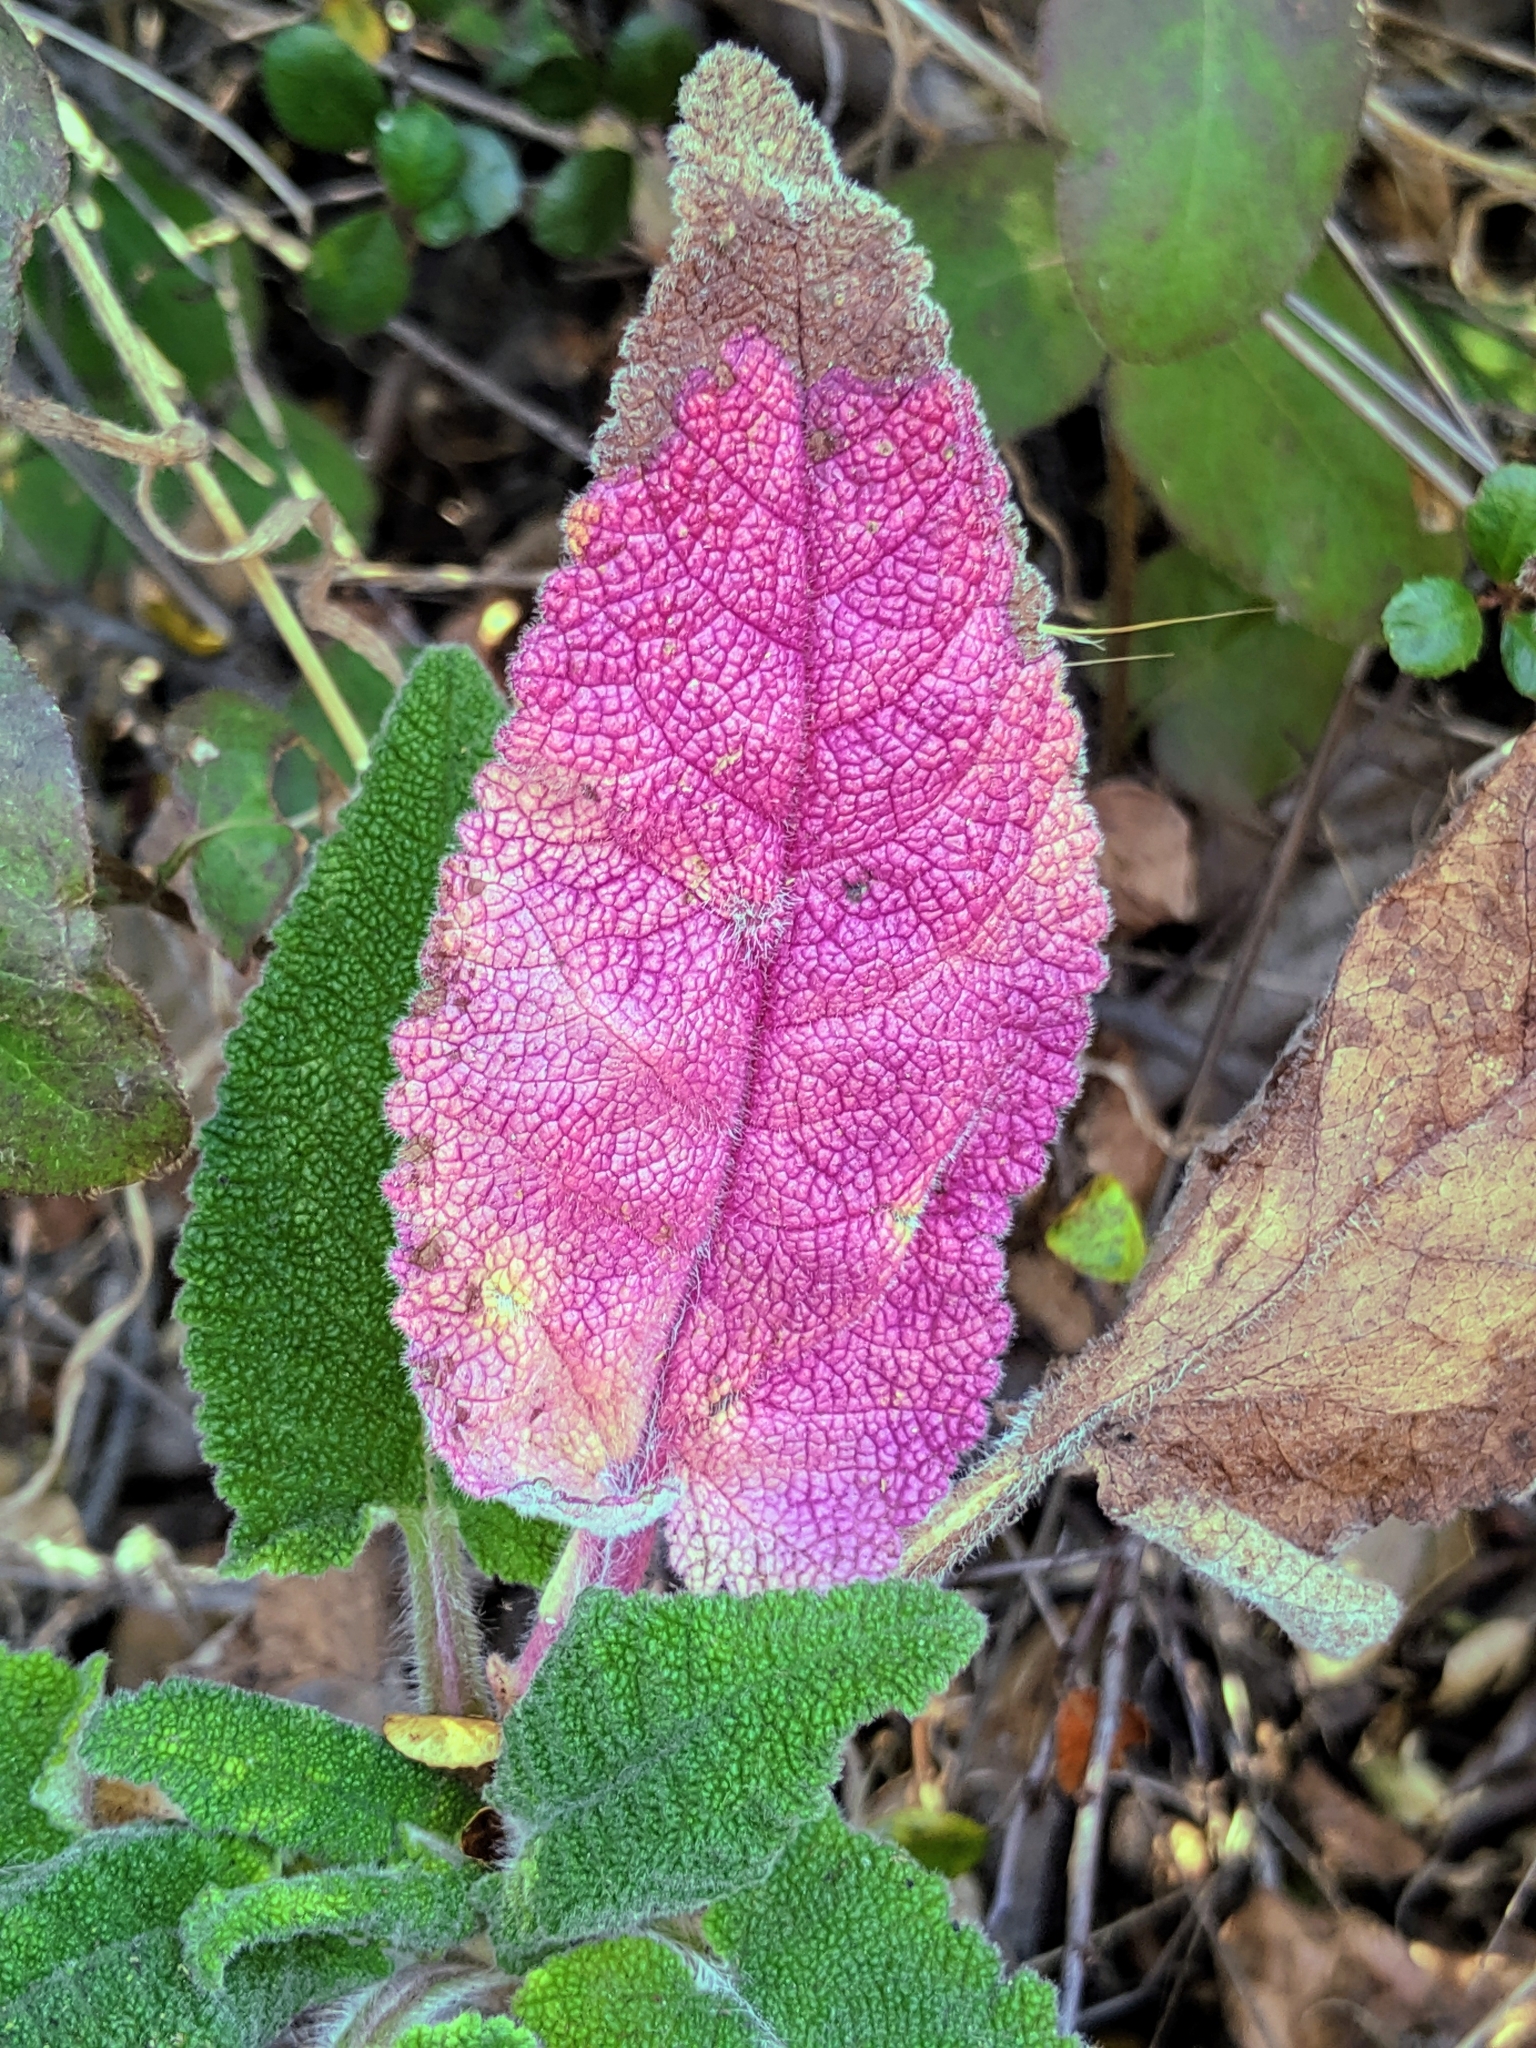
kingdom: Plantae
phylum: Tracheophyta
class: Magnoliopsida
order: Lamiales
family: Lamiaceae
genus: Salvia
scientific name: Salvia spathacea
